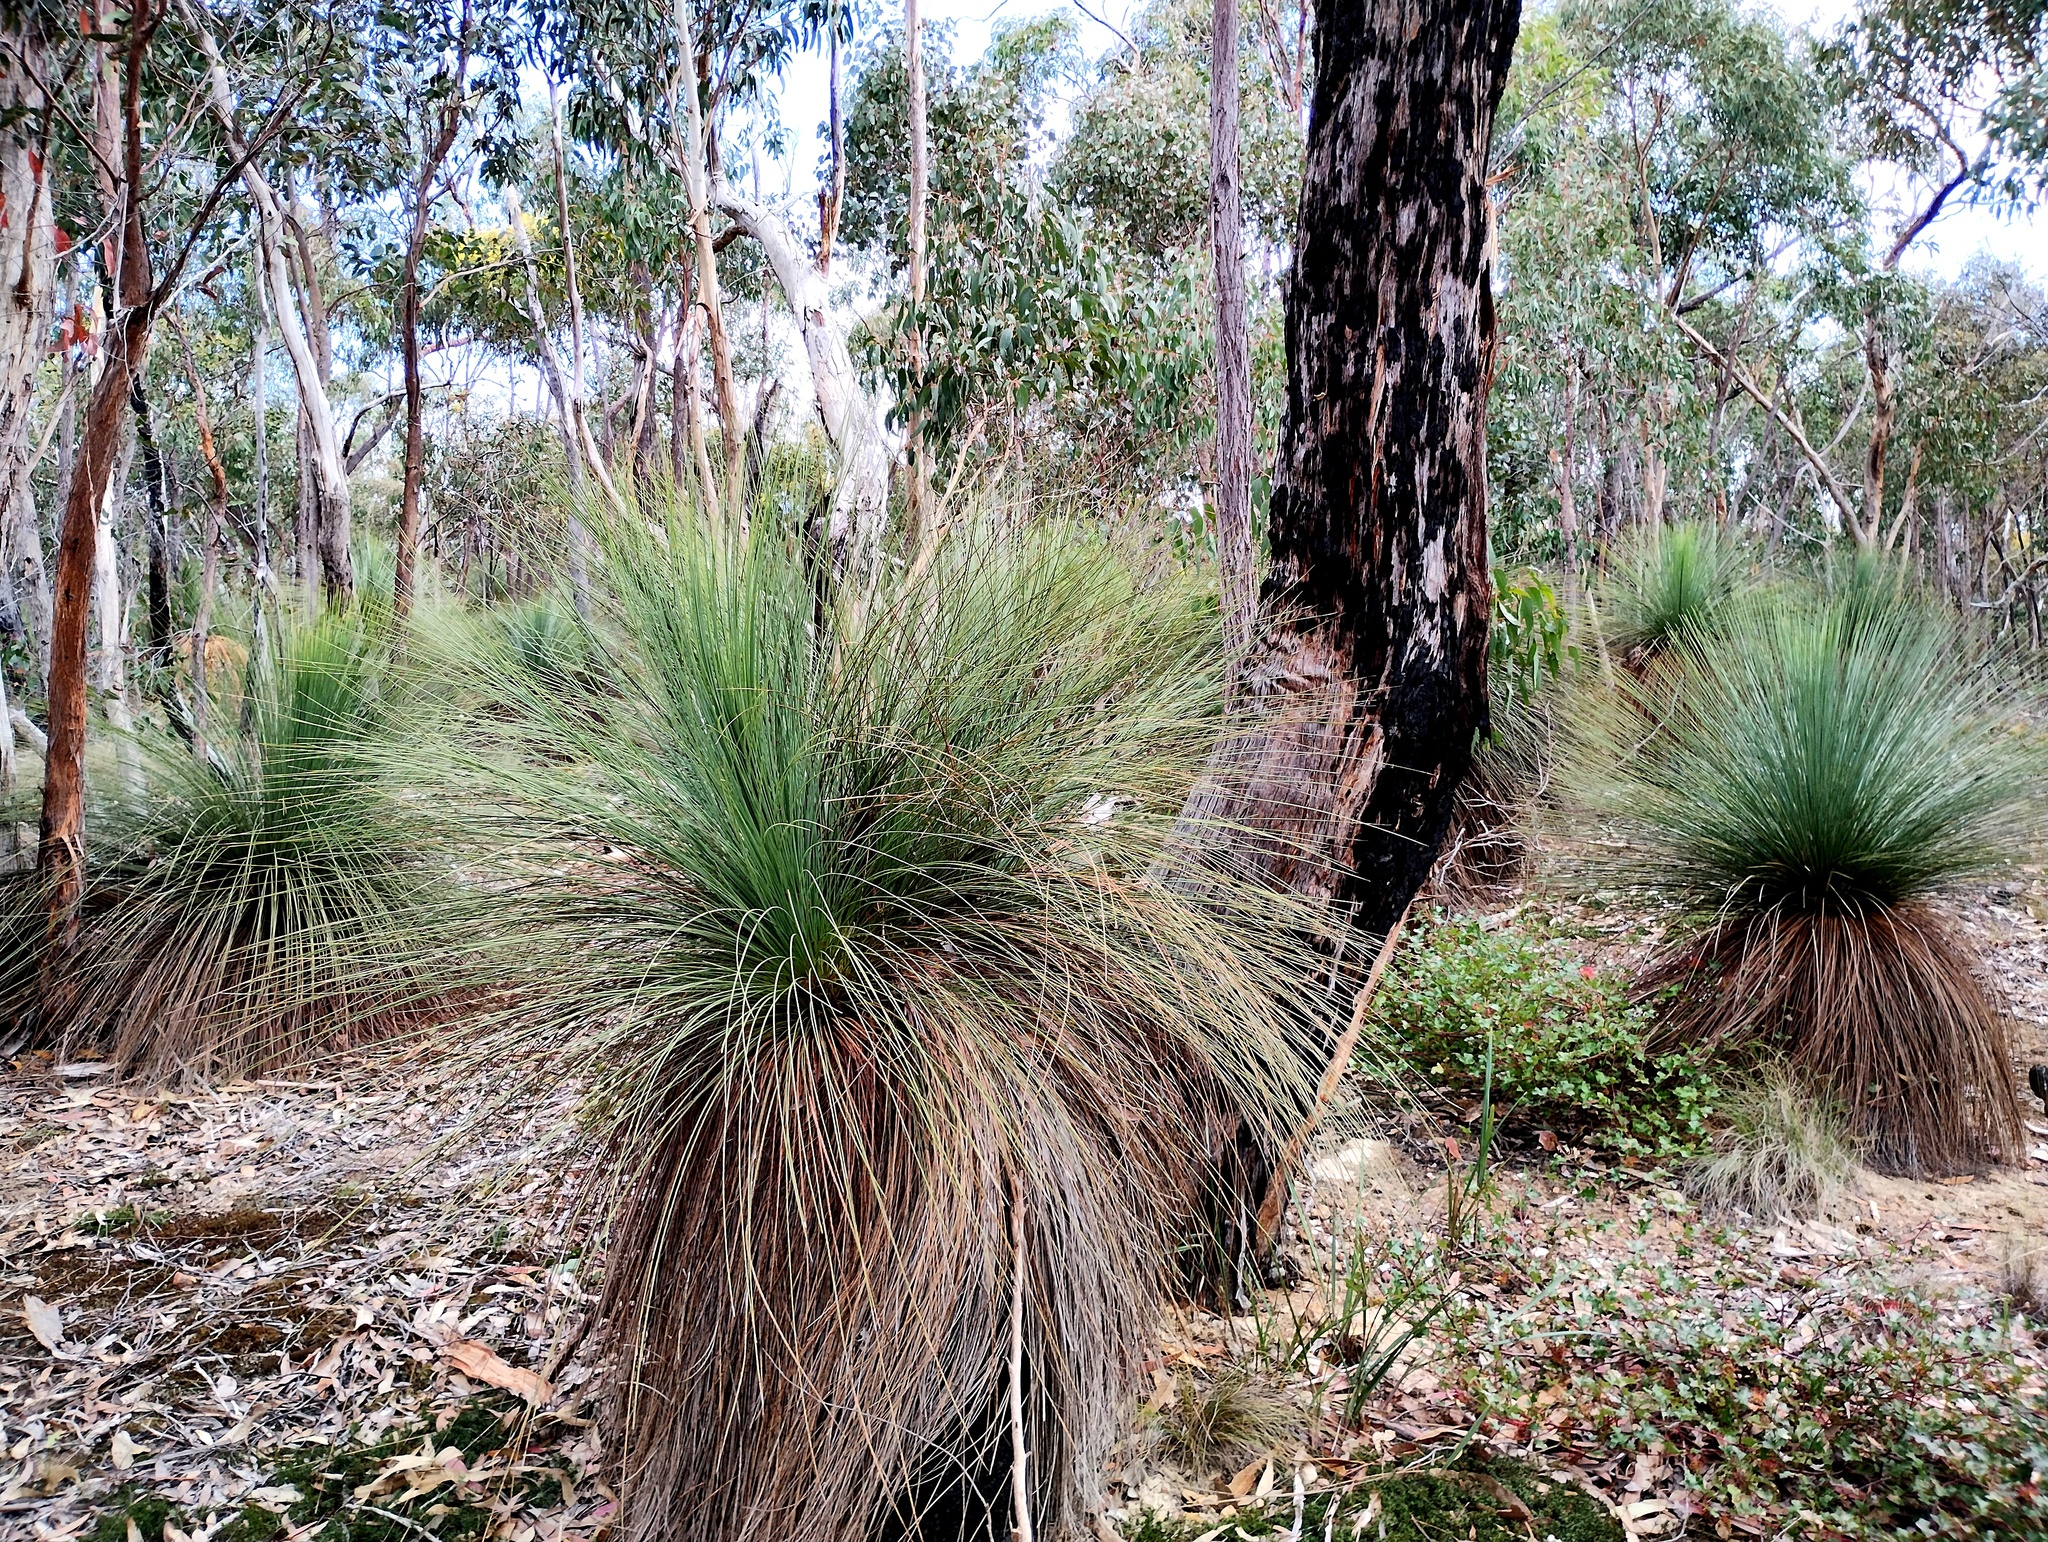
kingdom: Plantae
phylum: Tracheophyta
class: Liliopsida
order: Asparagales
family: Asphodelaceae
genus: Xanthorrhoea
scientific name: Xanthorrhoea australis
